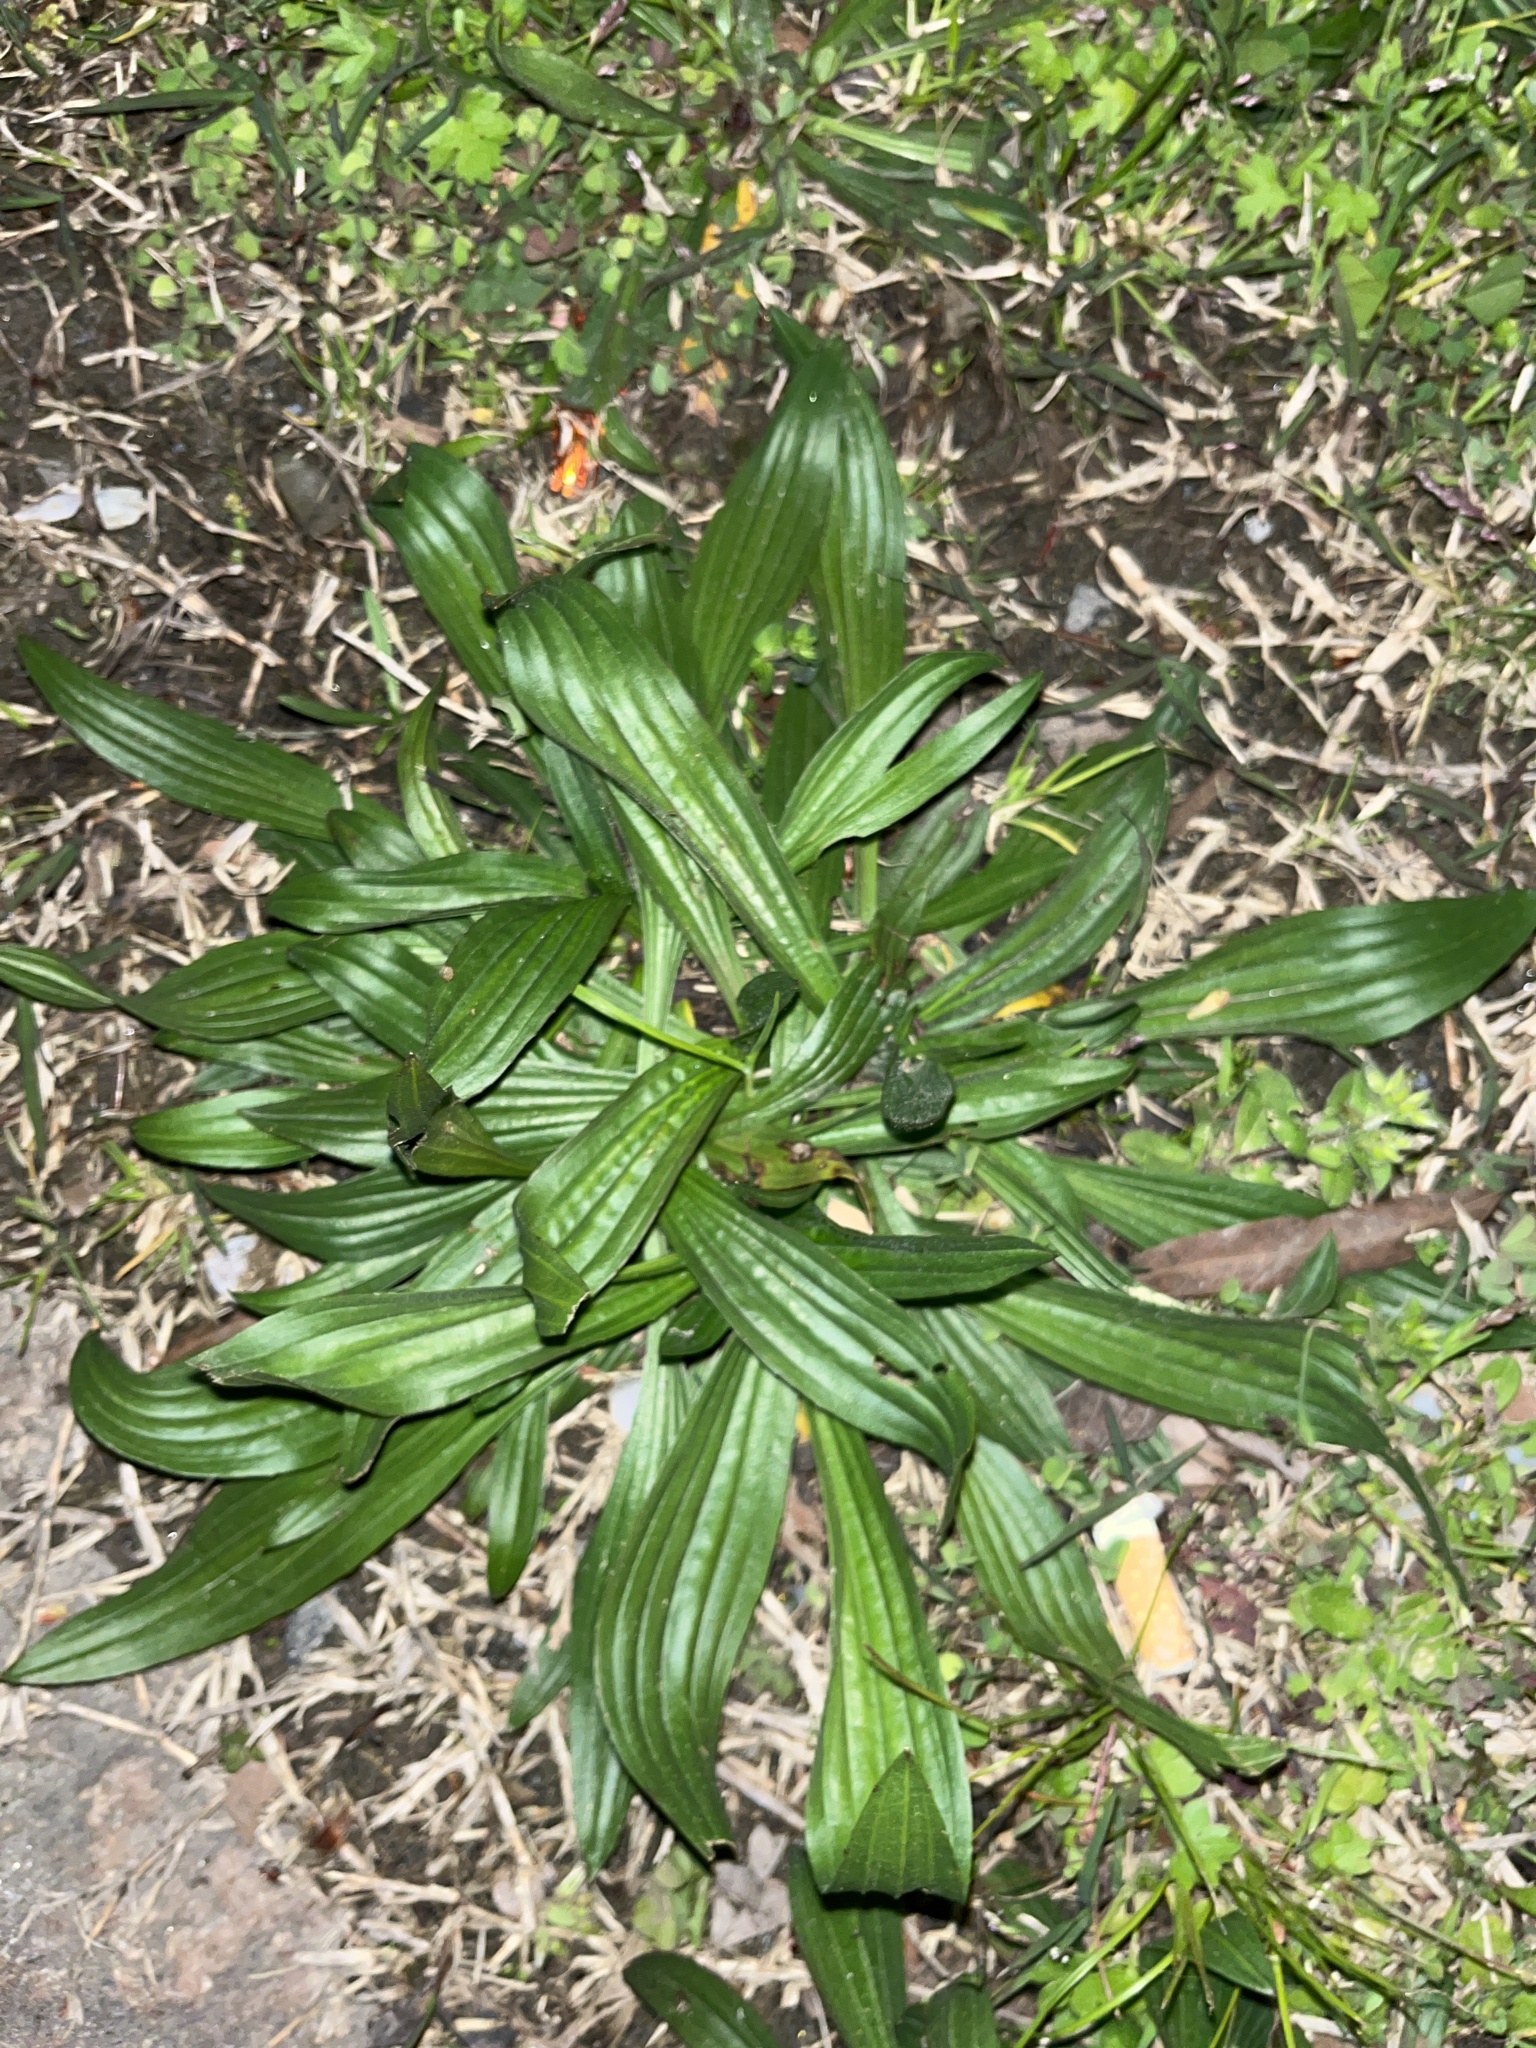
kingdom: Plantae
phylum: Tracheophyta
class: Magnoliopsida
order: Lamiales
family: Plantaginaceae
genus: Plantago
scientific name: Plantago lanceolata
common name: Ribwort plantain
